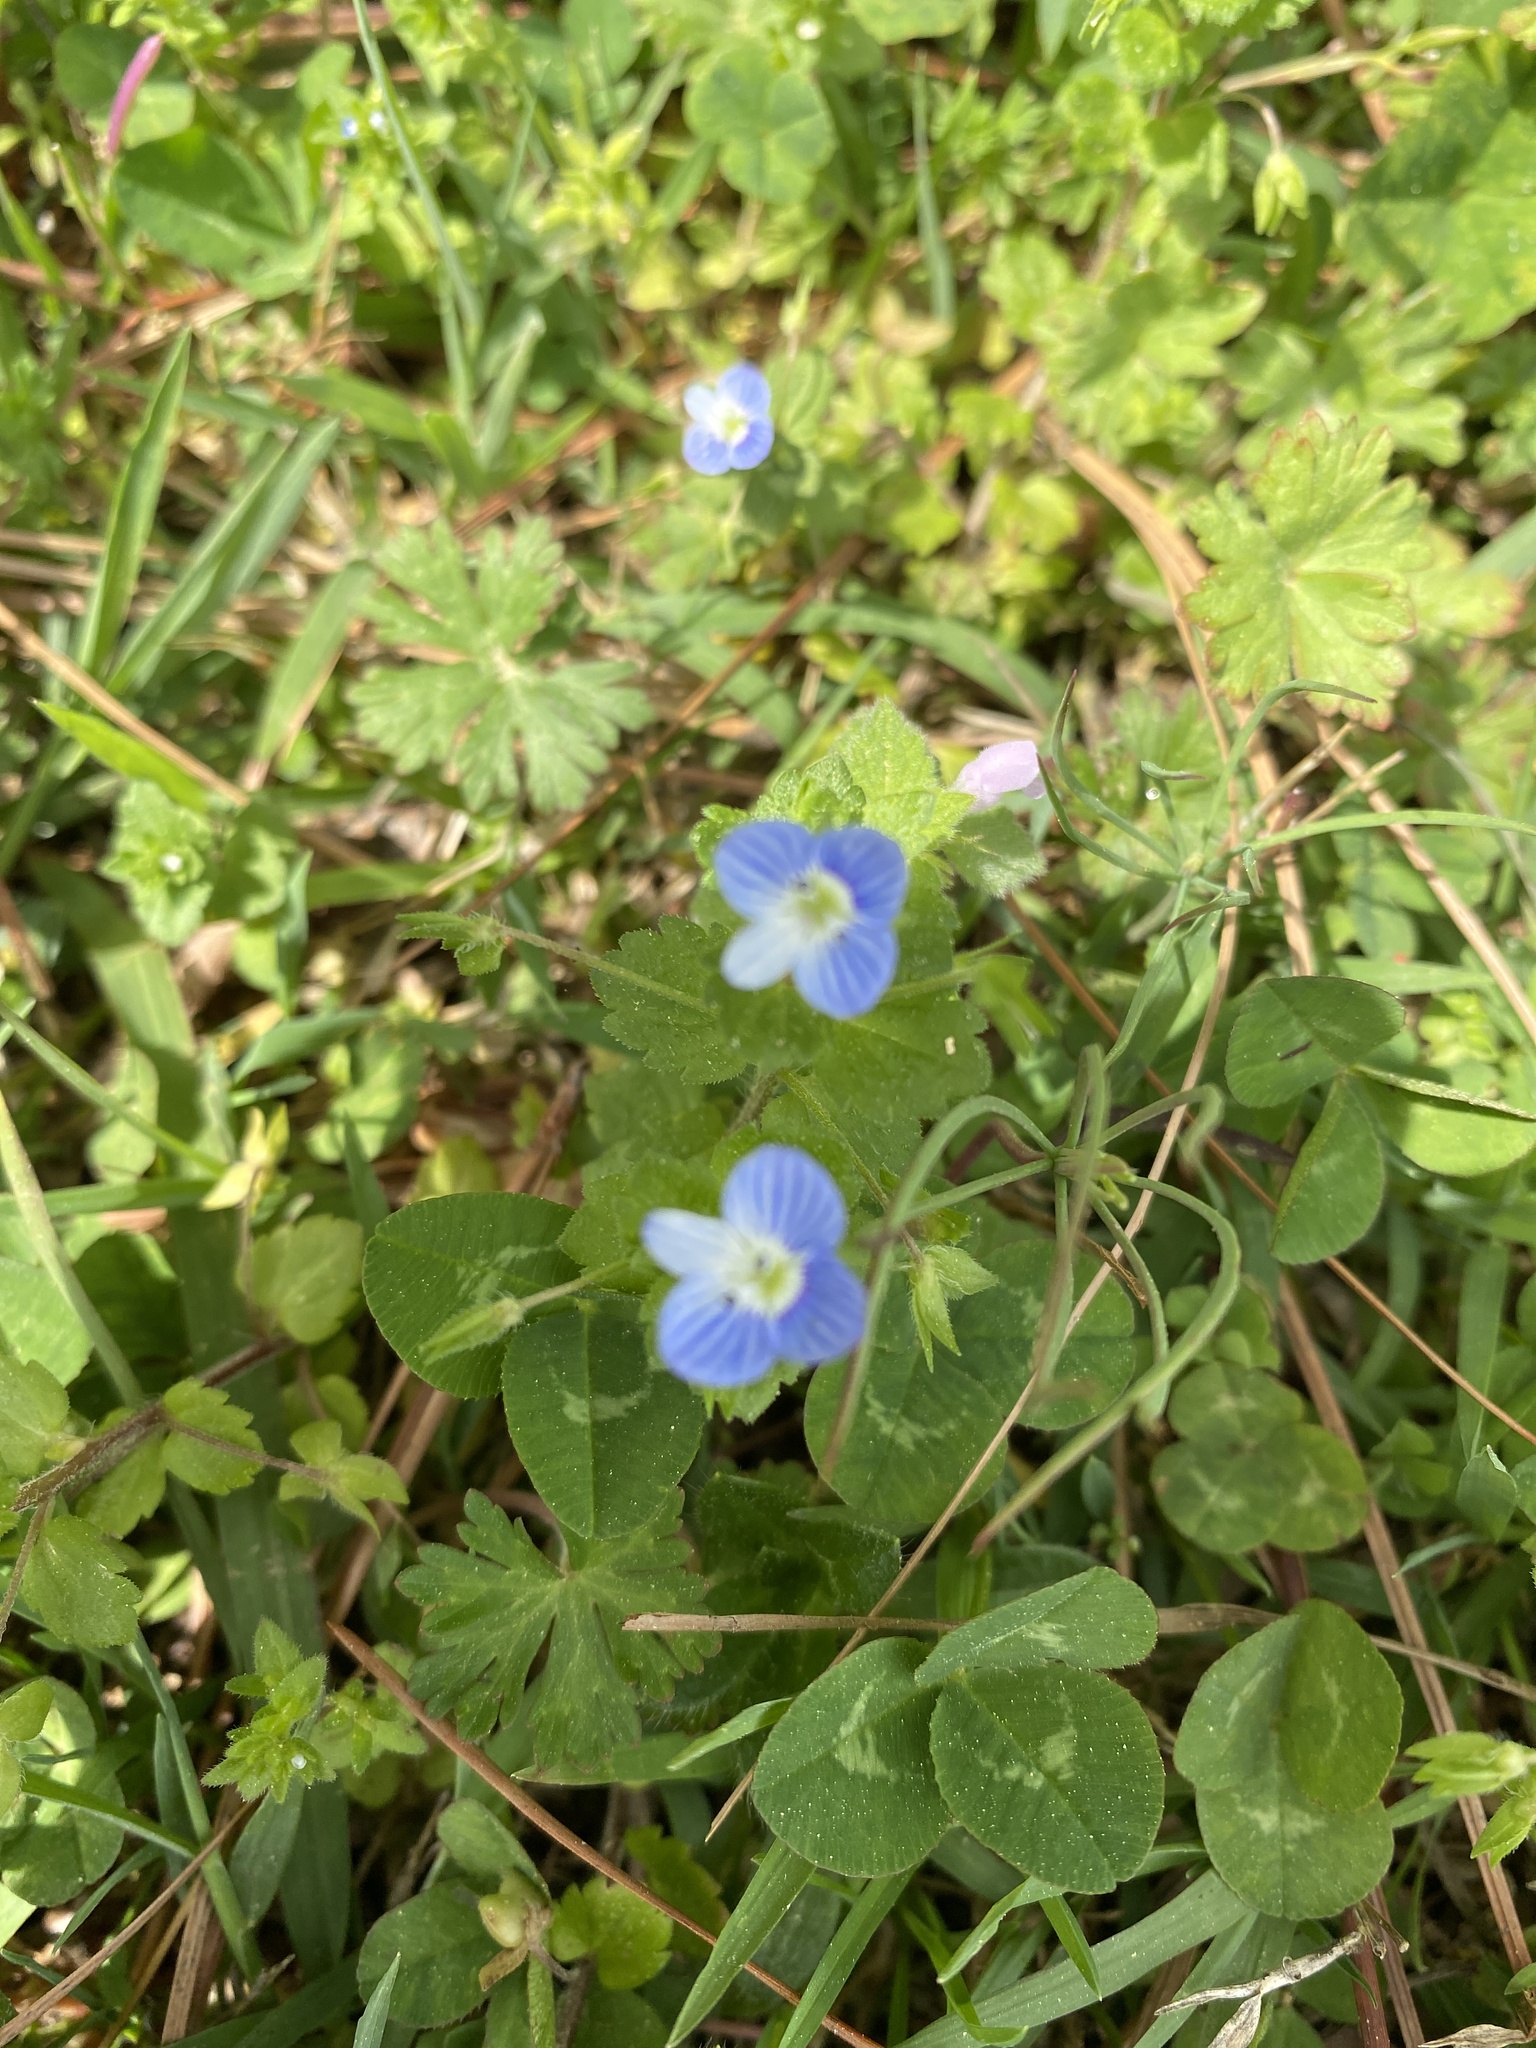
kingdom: Plantae
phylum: Tracheophyta
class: Magnoliopsida
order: Lamiales
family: Plantaginaceae
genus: Veronica
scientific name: Veronica persica
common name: Common field-speedwell
